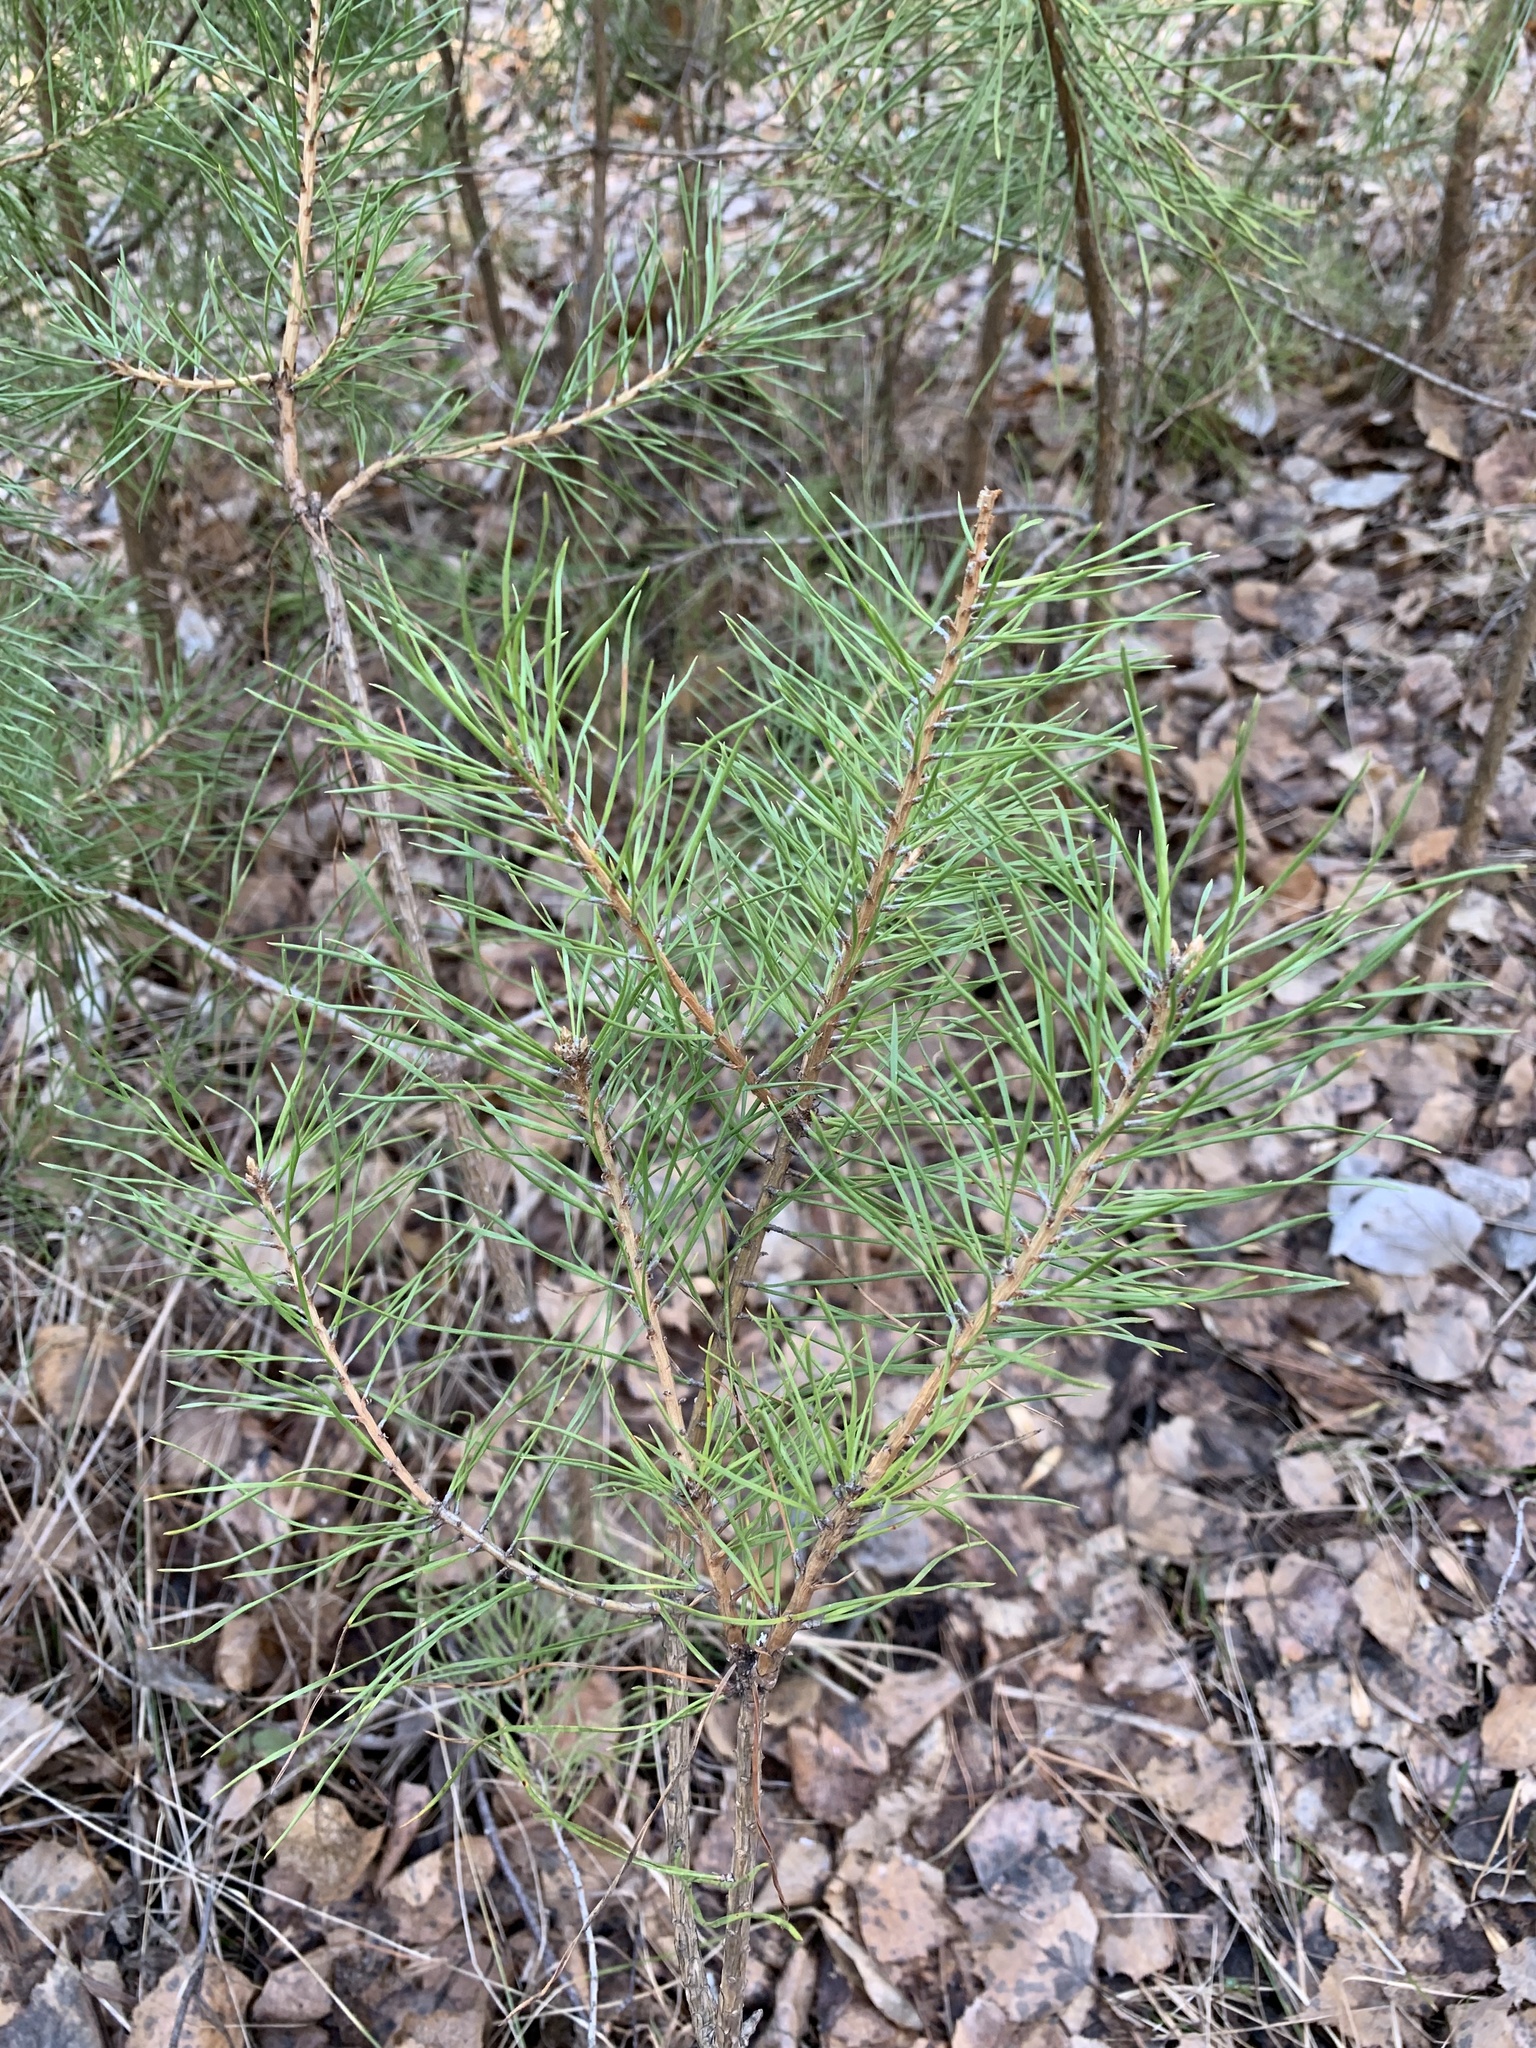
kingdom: Plantae
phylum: Tracheophyta
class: Pinopsida
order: Pinales
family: Pinaceae
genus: Pinus
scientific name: Pinus sylvestris
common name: Scots pine
